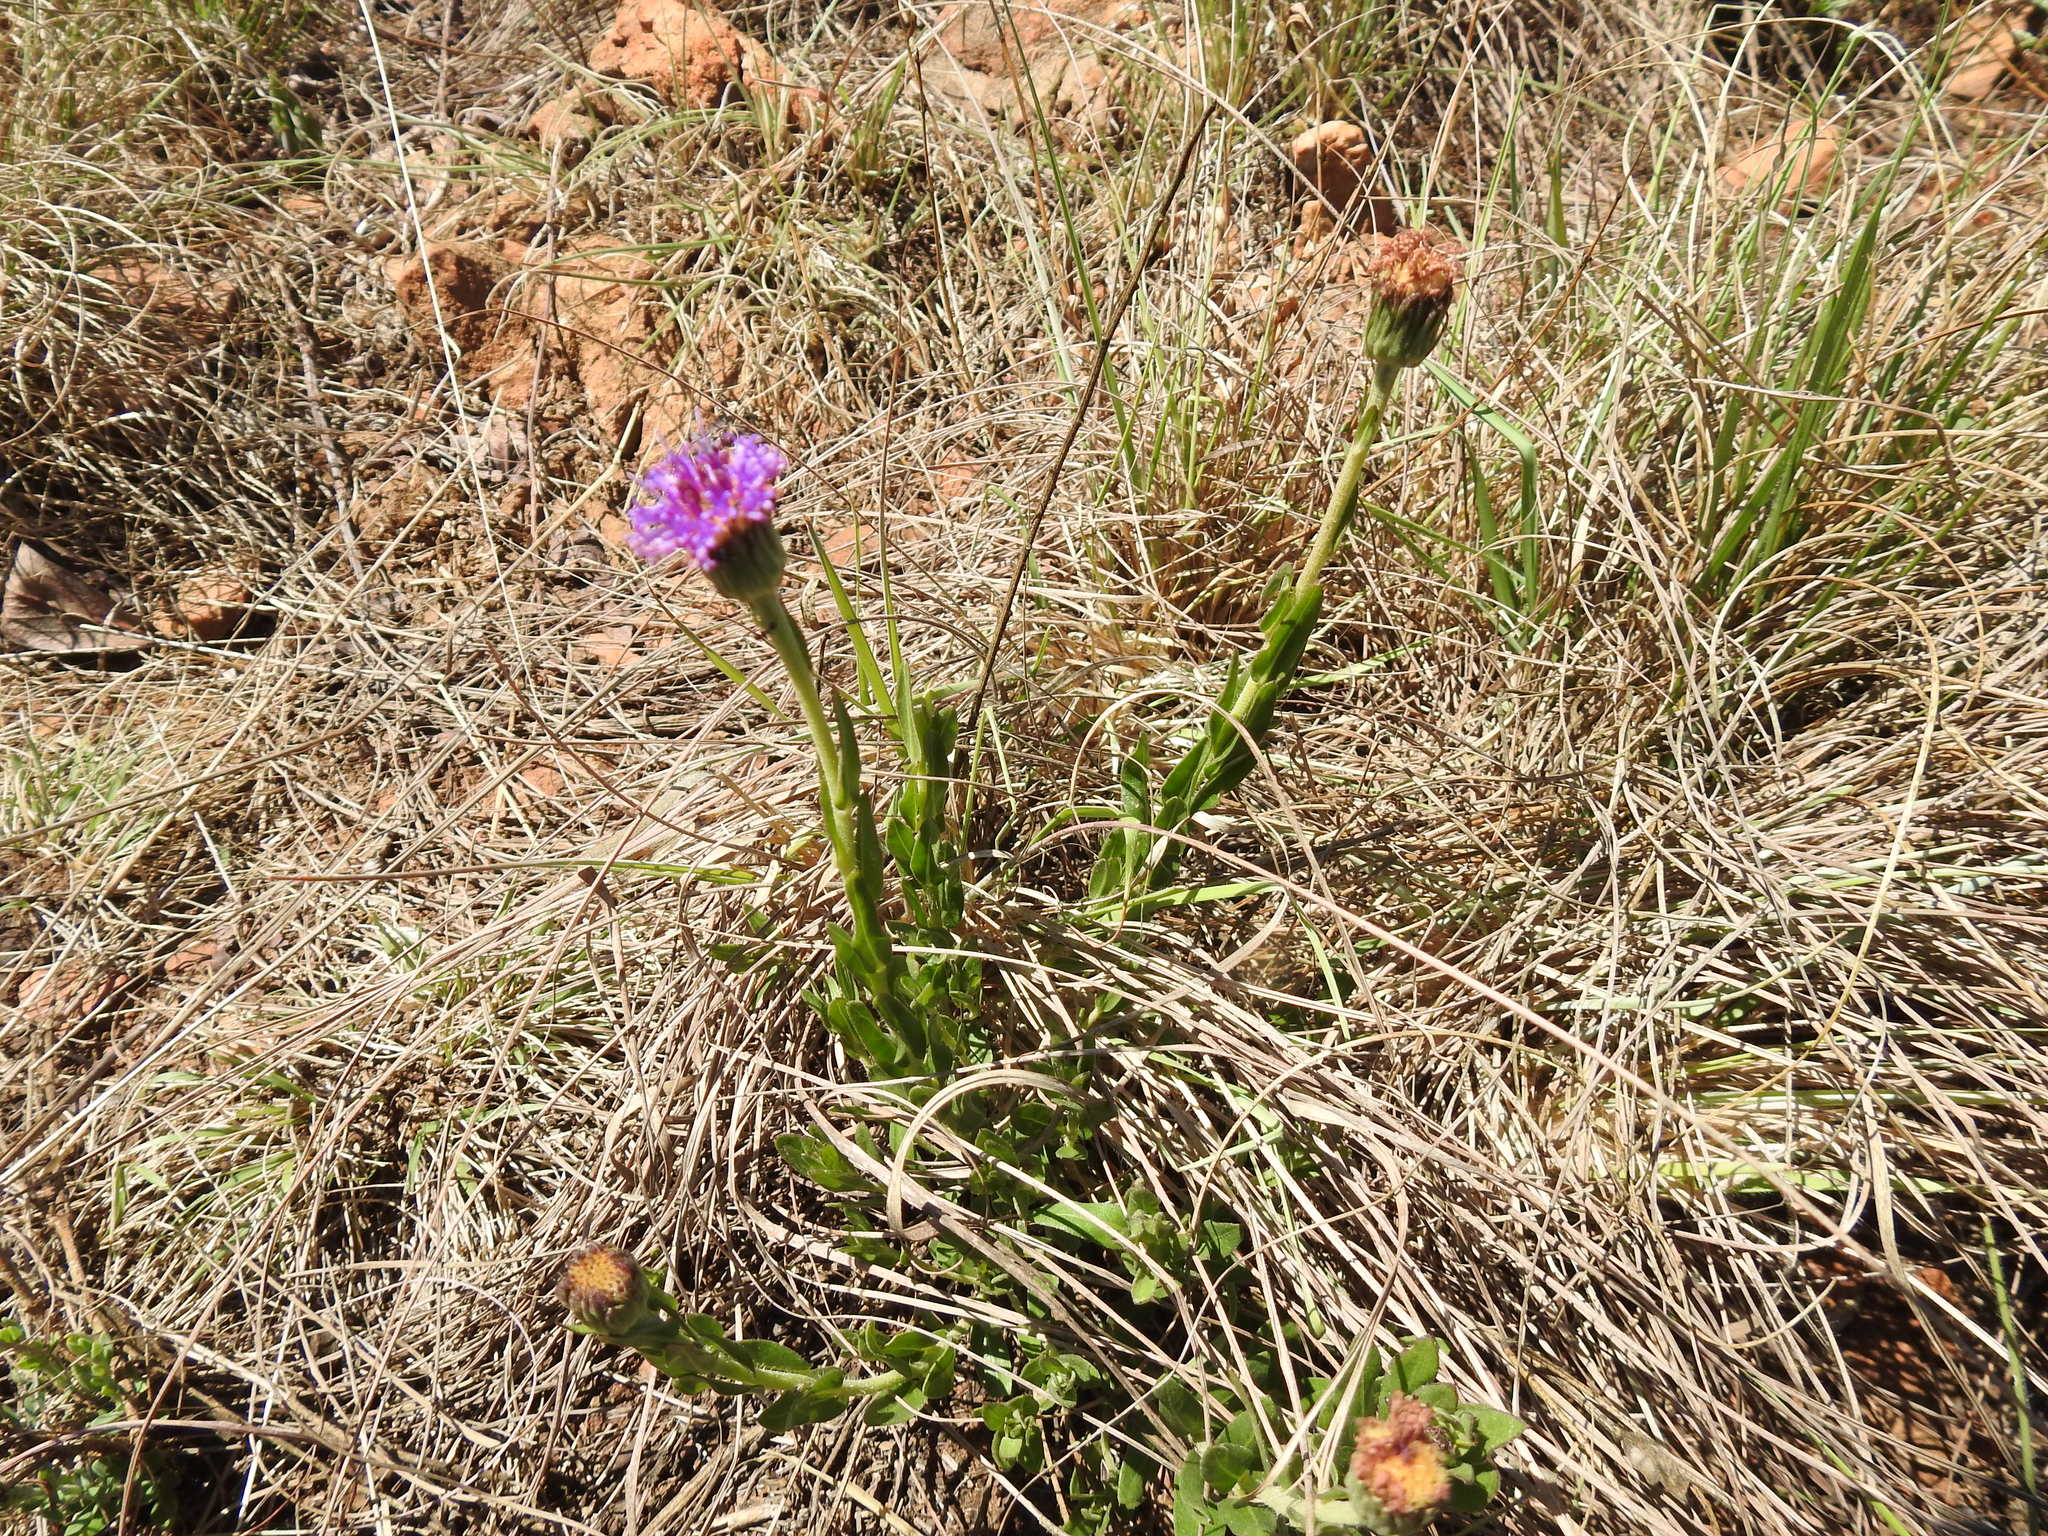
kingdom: Plantae
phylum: Tracheophyta
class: Magnoliopsida
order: Asterales
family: Asteraceae
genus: Pseudopegolettia
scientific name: Pseudopegolettia tenella
